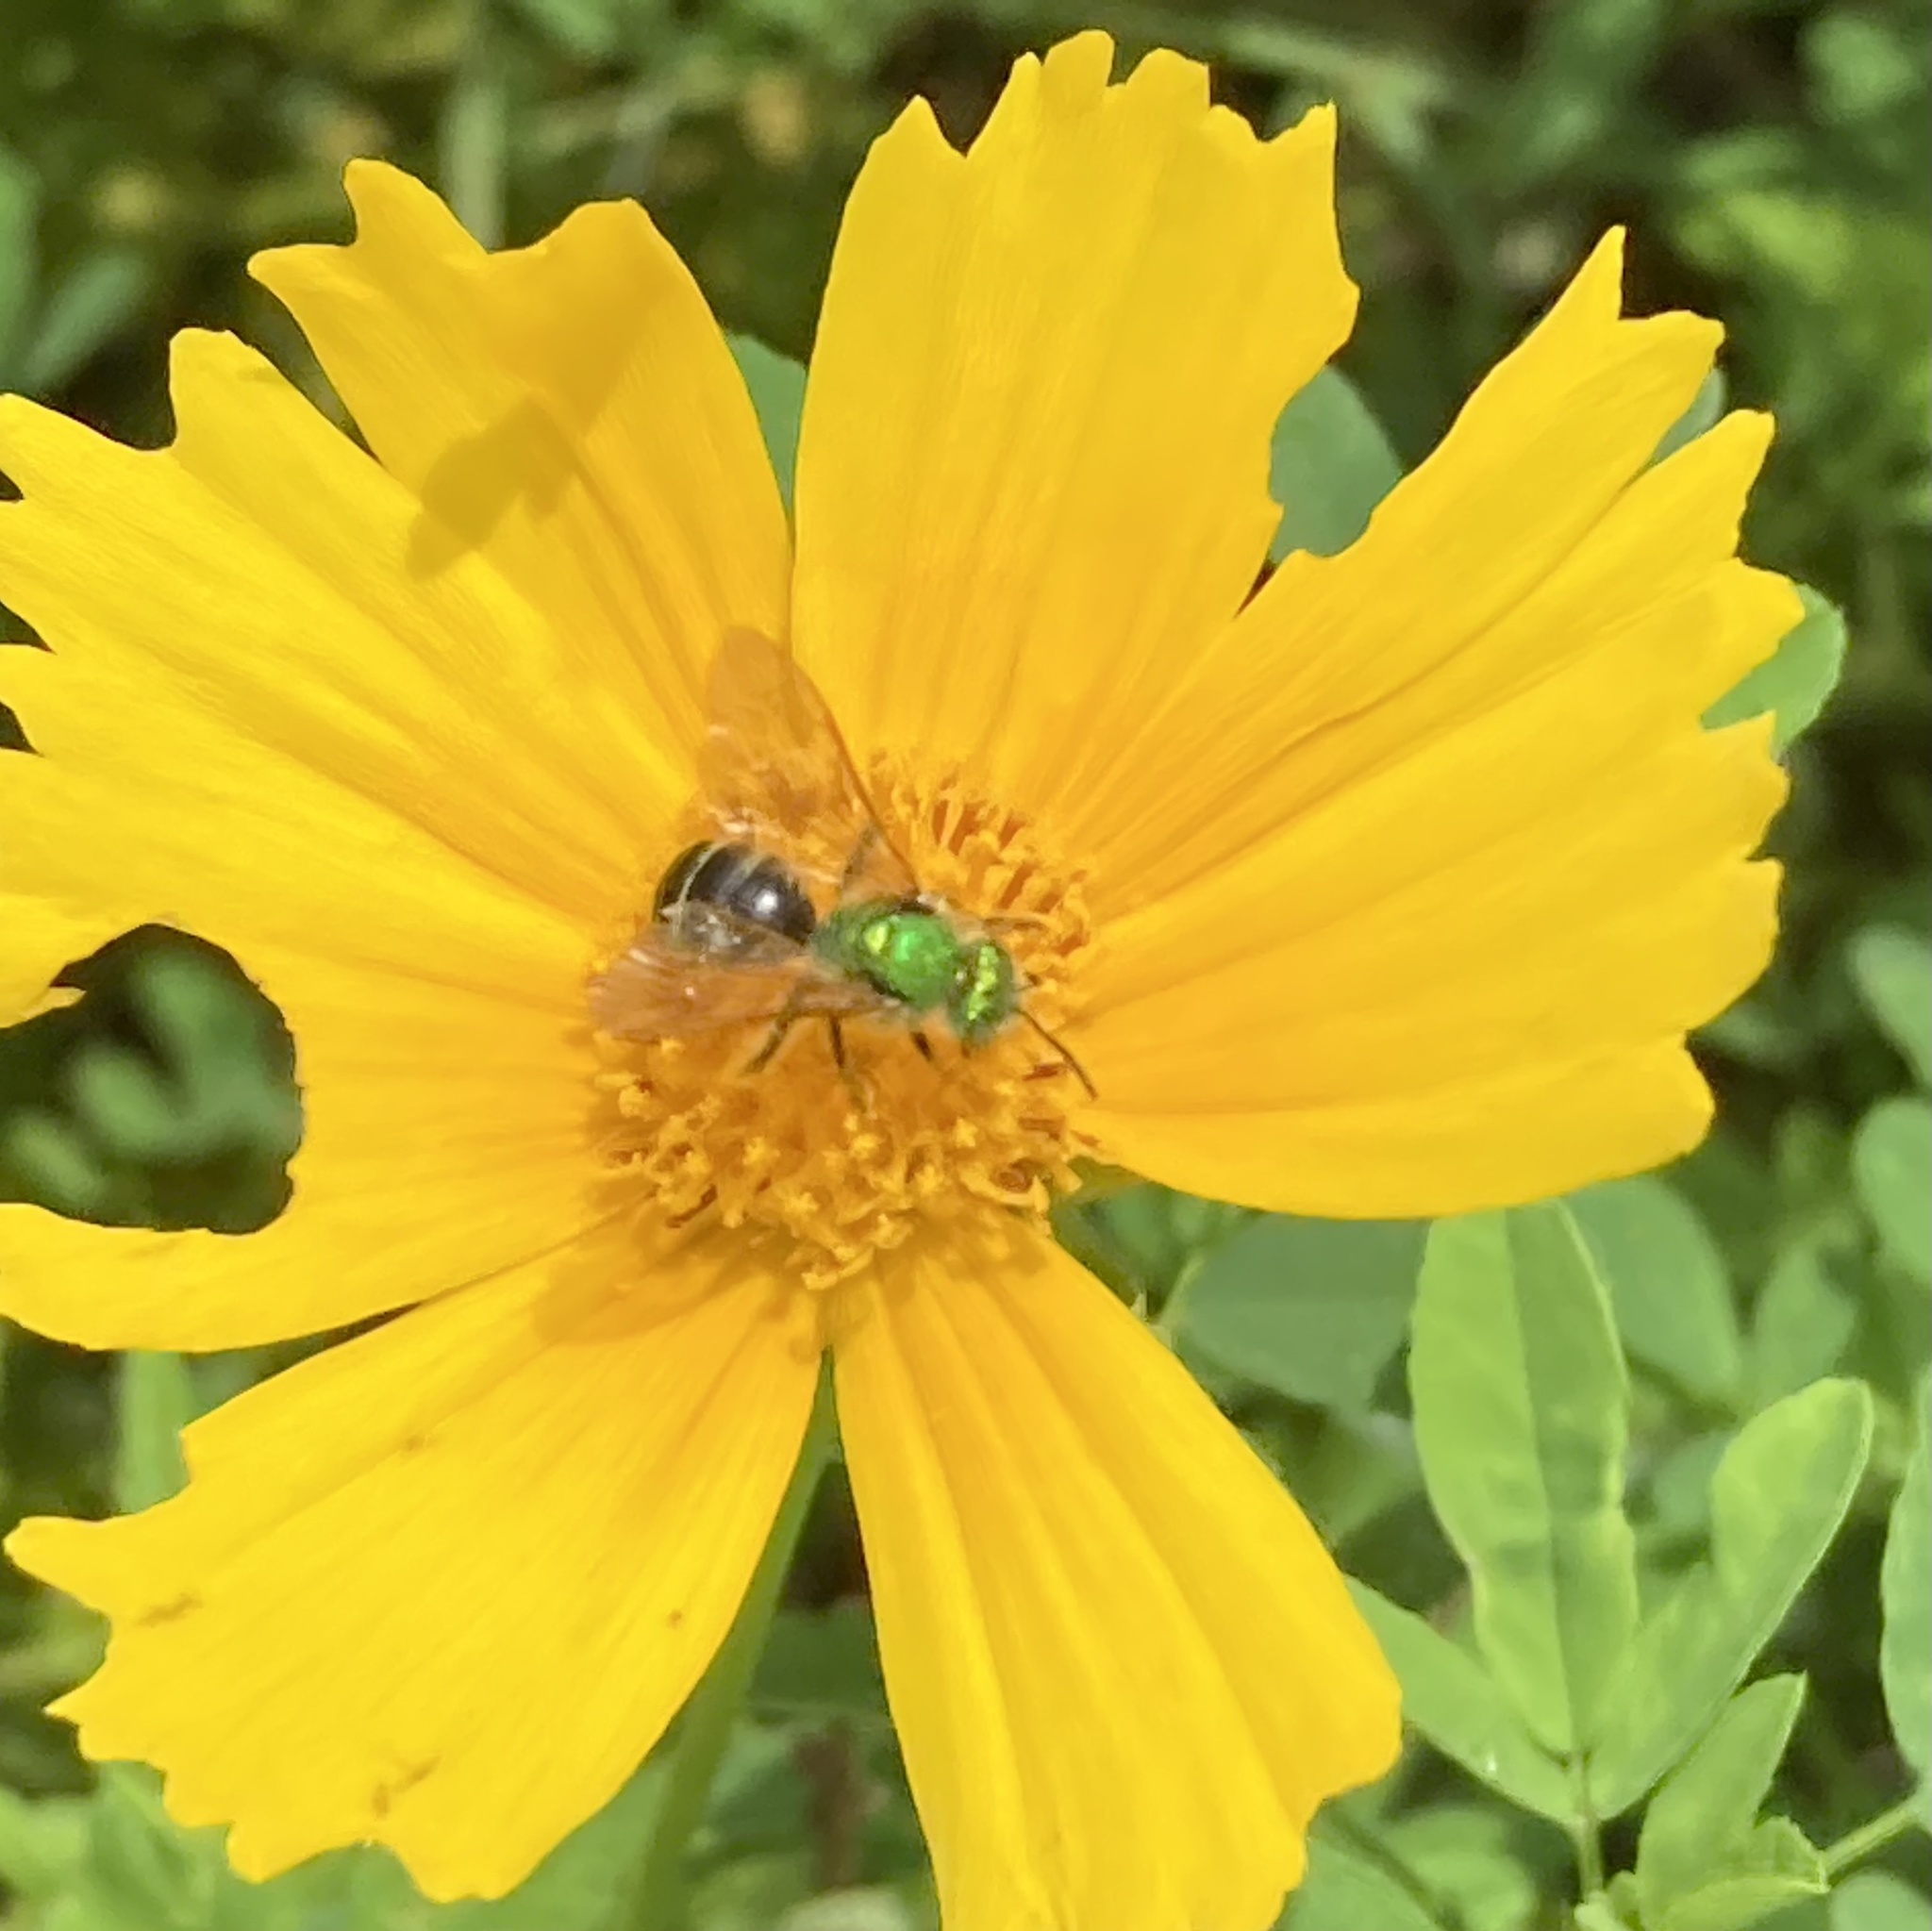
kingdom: Animalia
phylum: Arthropoda
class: Insecta
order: Hymenoptera
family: Halictidae
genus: Agapostemon
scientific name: Agapostemon virescens
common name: Bicolored striped sweat bee
